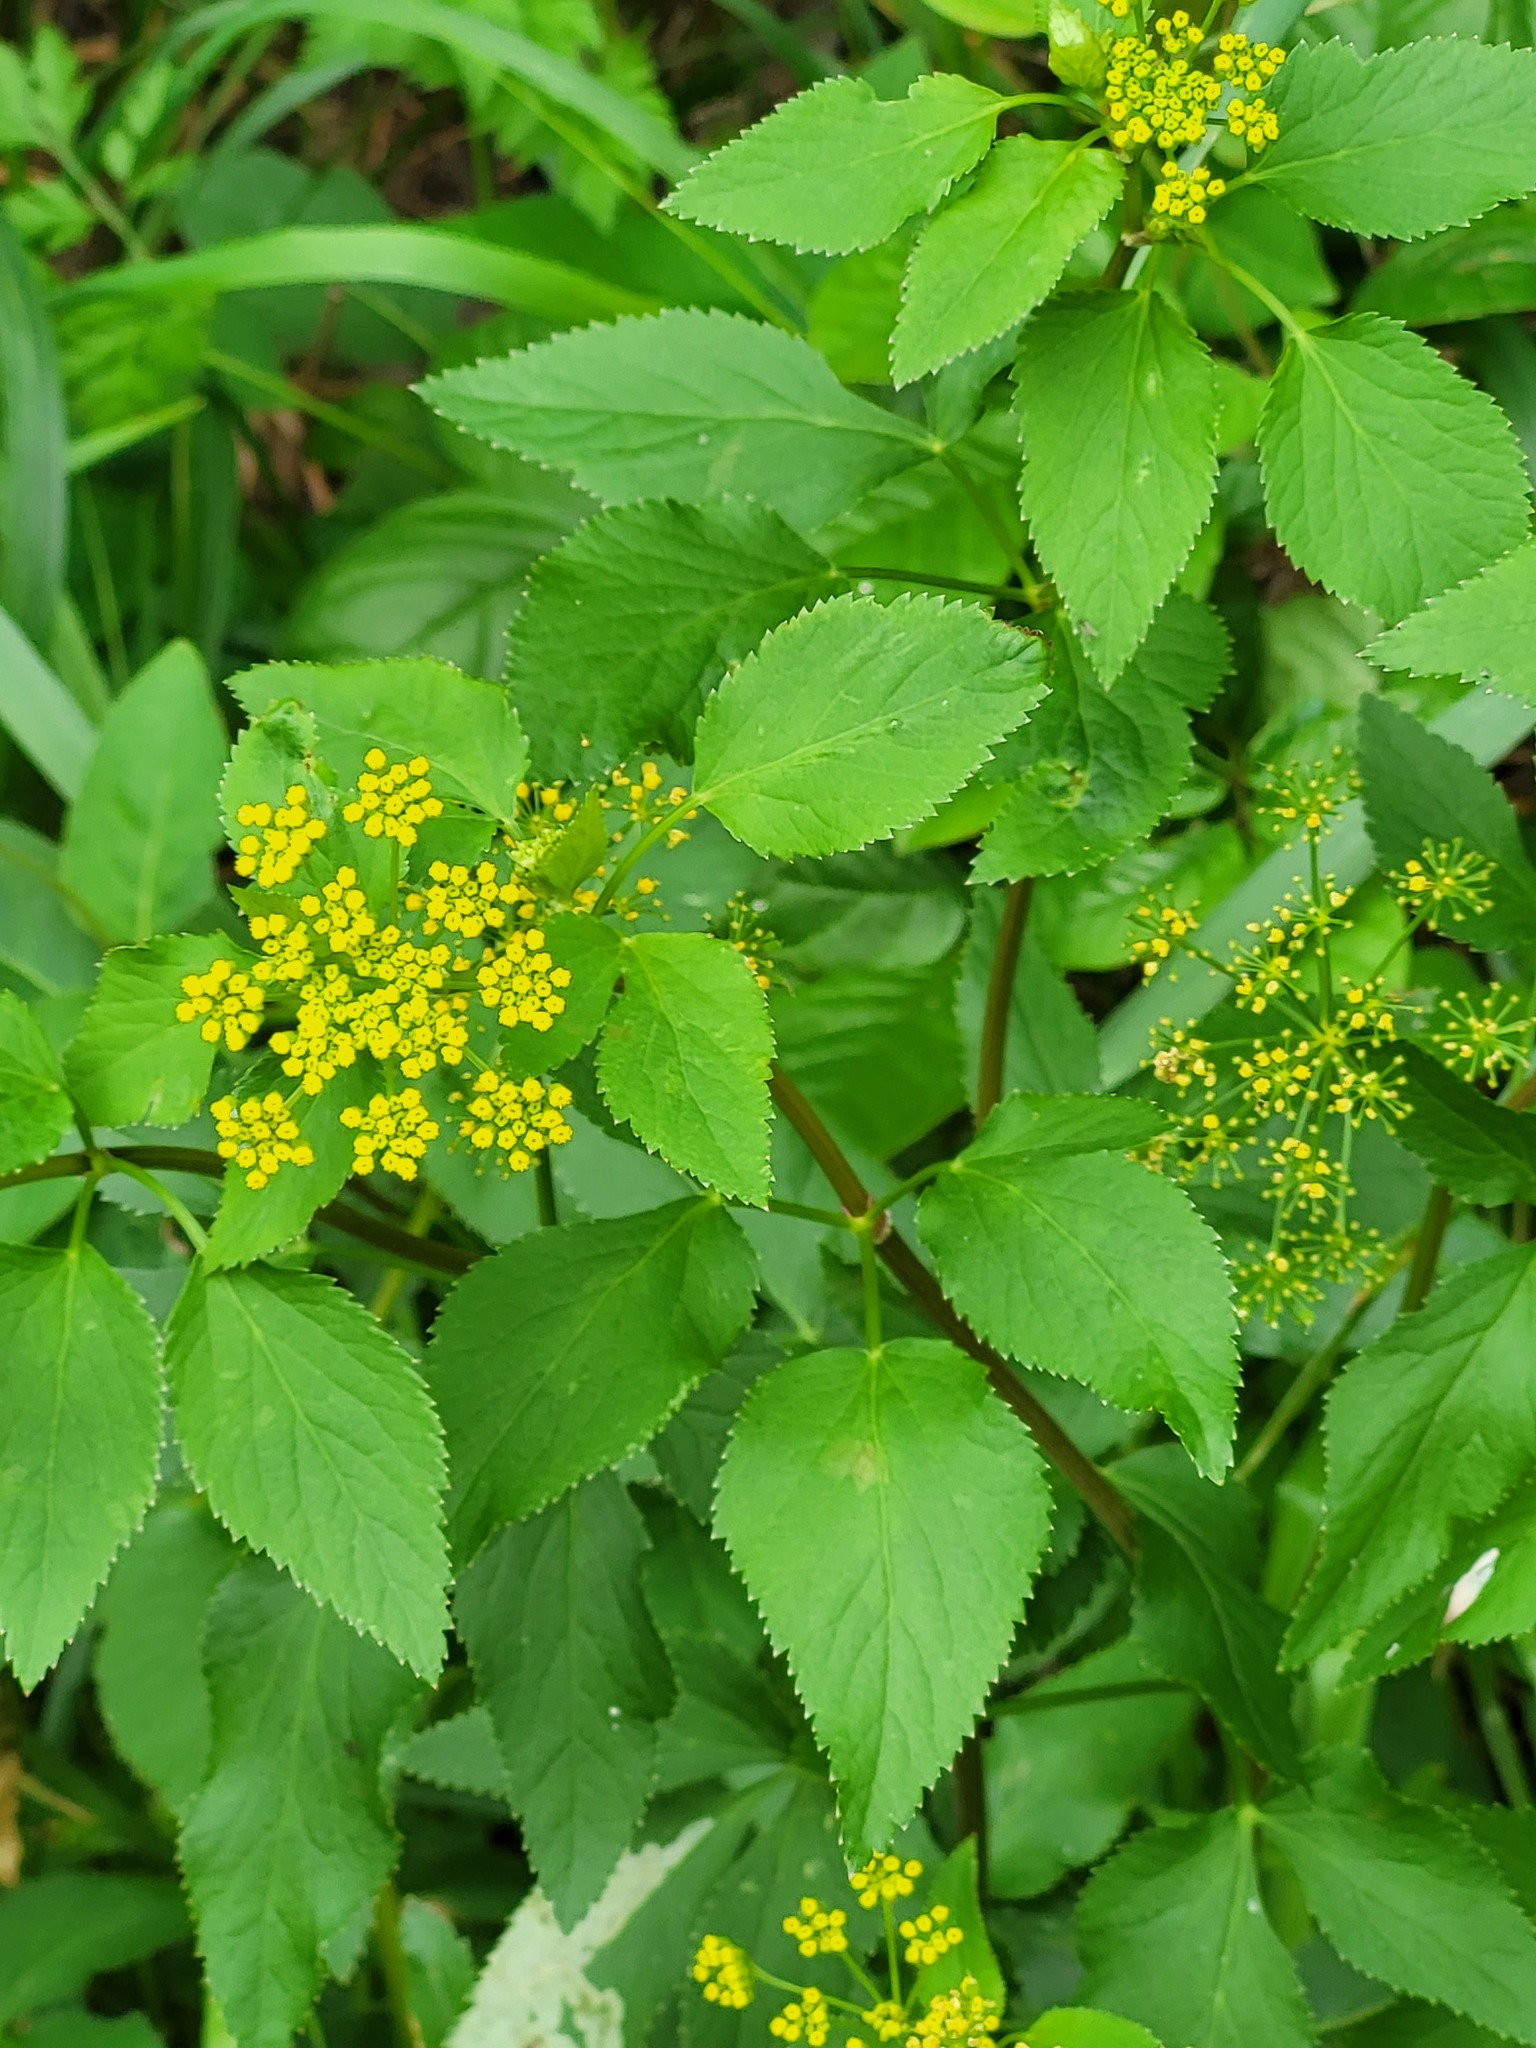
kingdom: Plantae
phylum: Tracheophyta
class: Magnoliopsida
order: Apiales
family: Apiaceae
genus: Zizia
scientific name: Zizia aurea
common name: Golden alexanders
